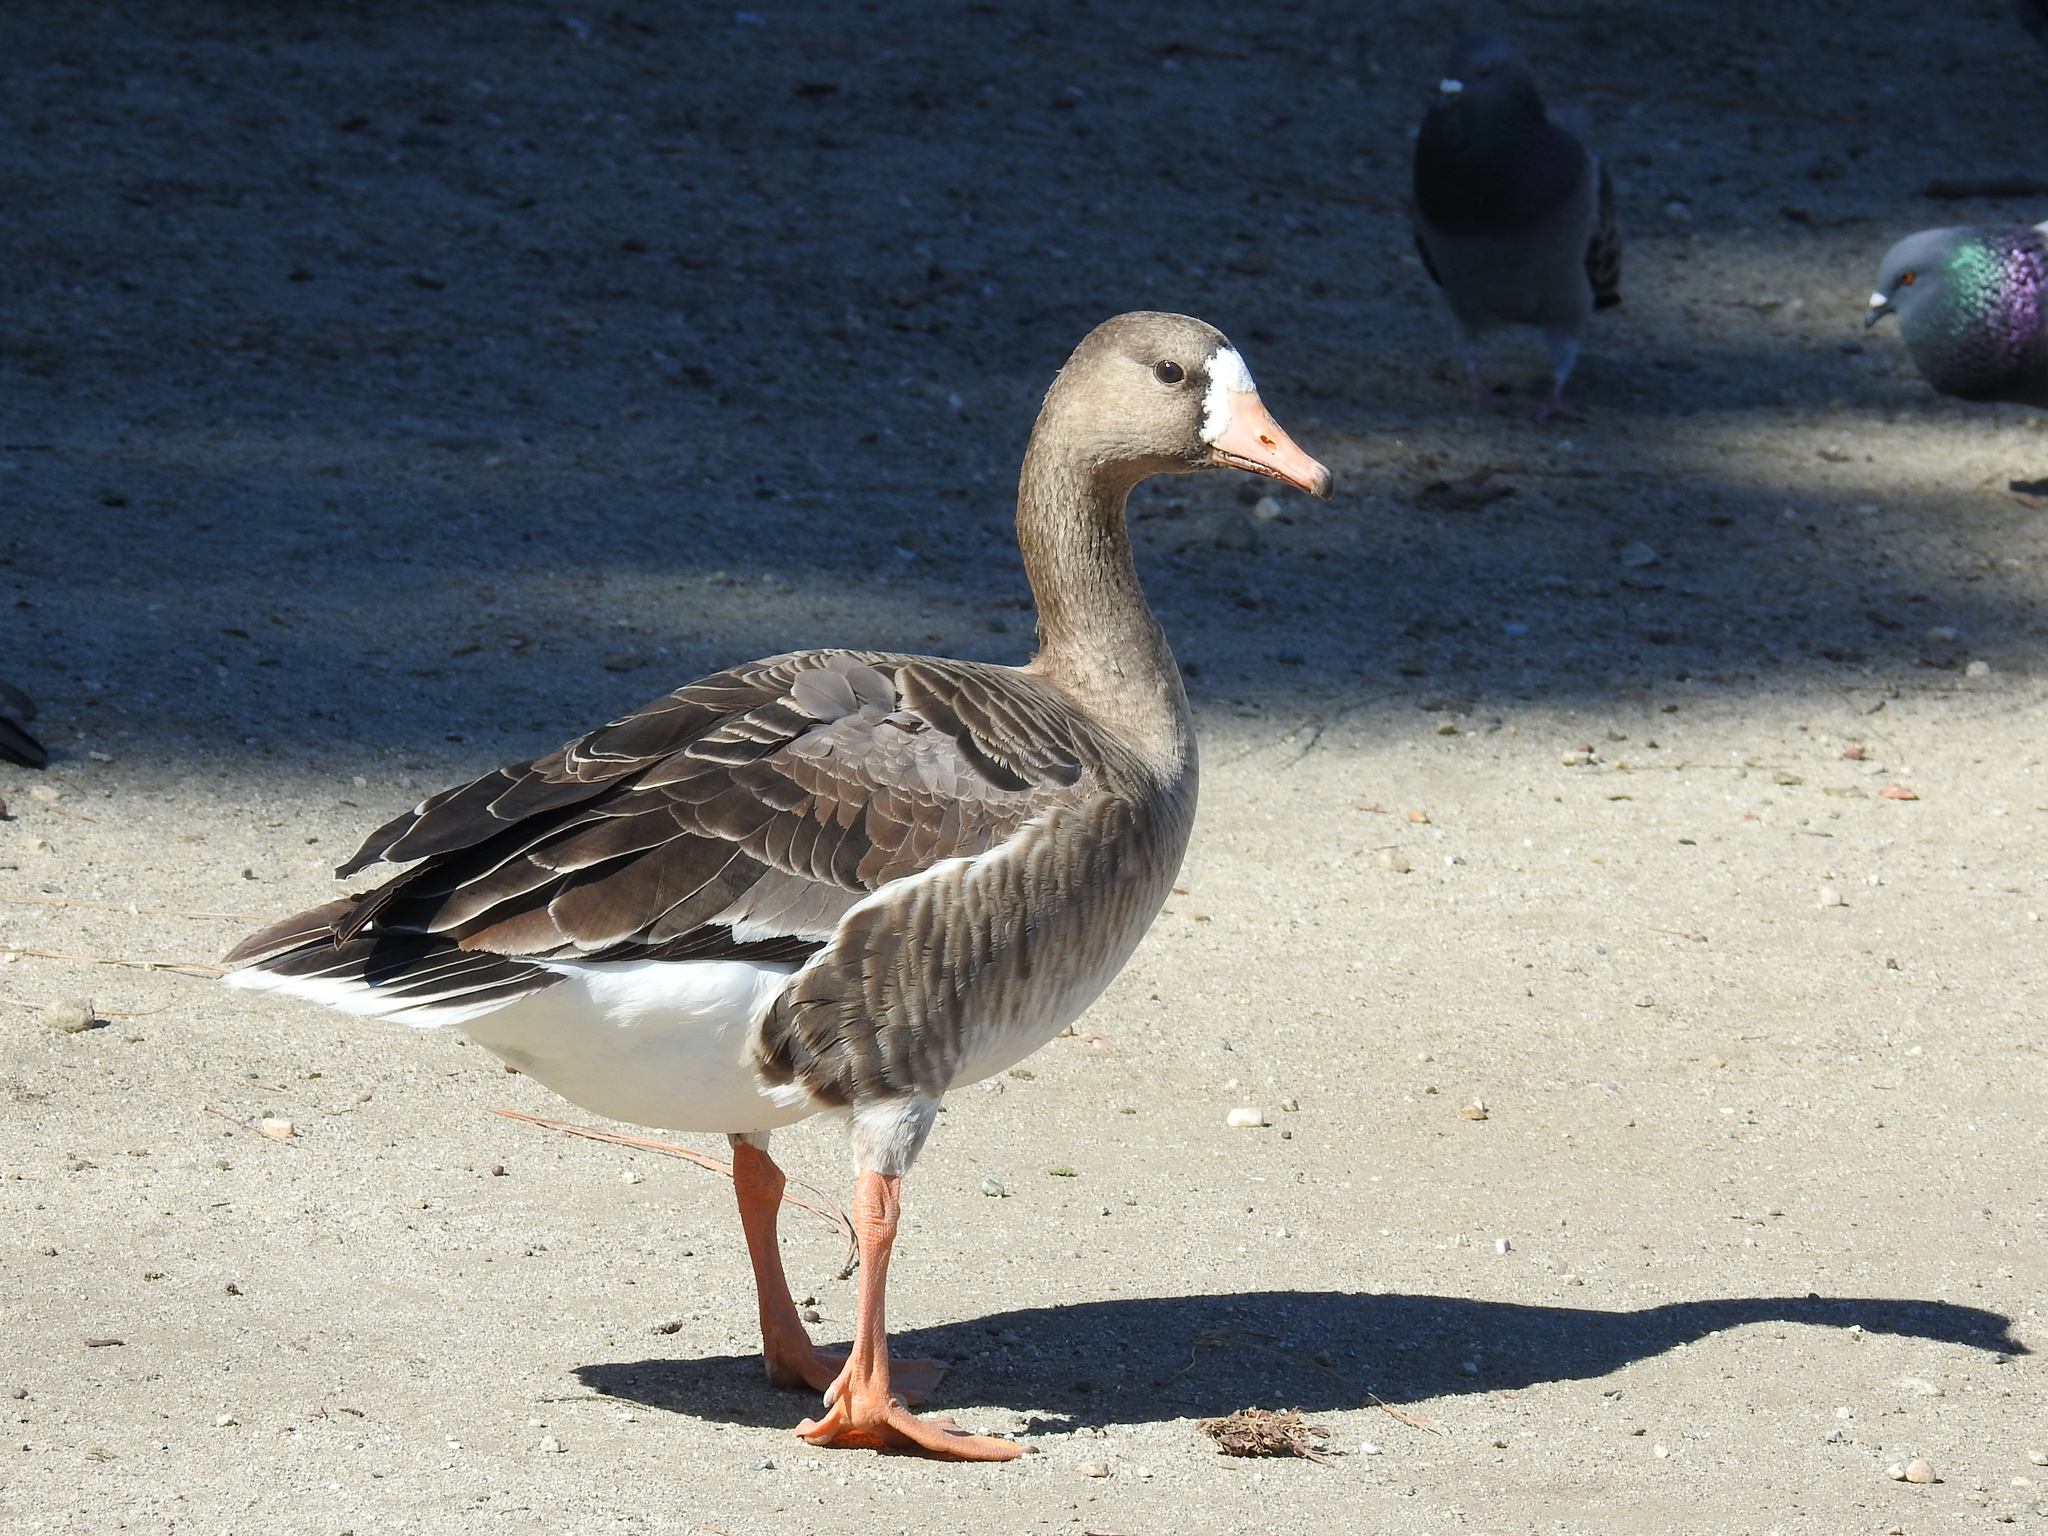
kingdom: Animalia
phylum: Chordata
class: Aves
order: Anseriformes
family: Anatidae
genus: Anser
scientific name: Anser albifrons
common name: Greater white-fronted goose
